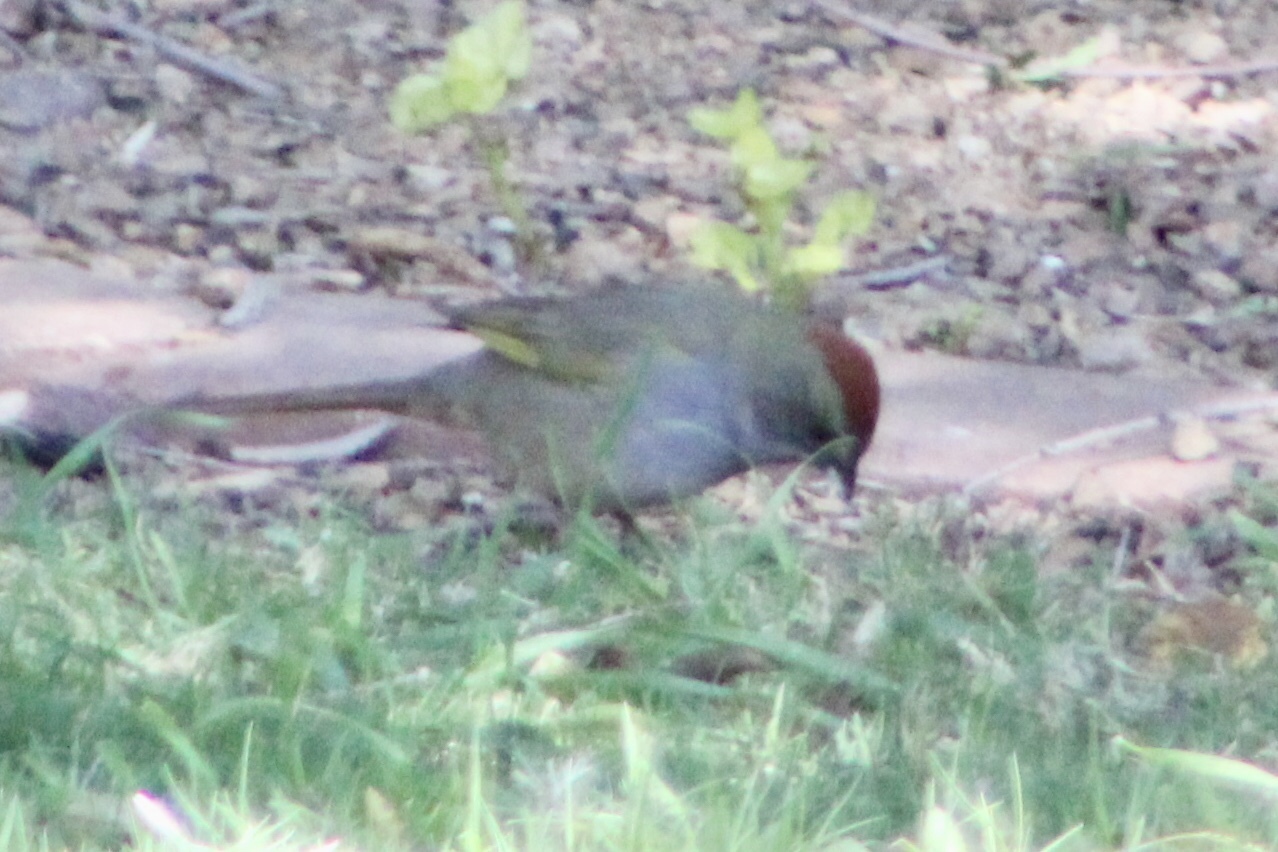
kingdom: Animalia
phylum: Chordata
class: Aves
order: Passeriformes
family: Passerellidae
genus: Pipilo
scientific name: Pipilo chlorurus
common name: Green-tailed towhee
